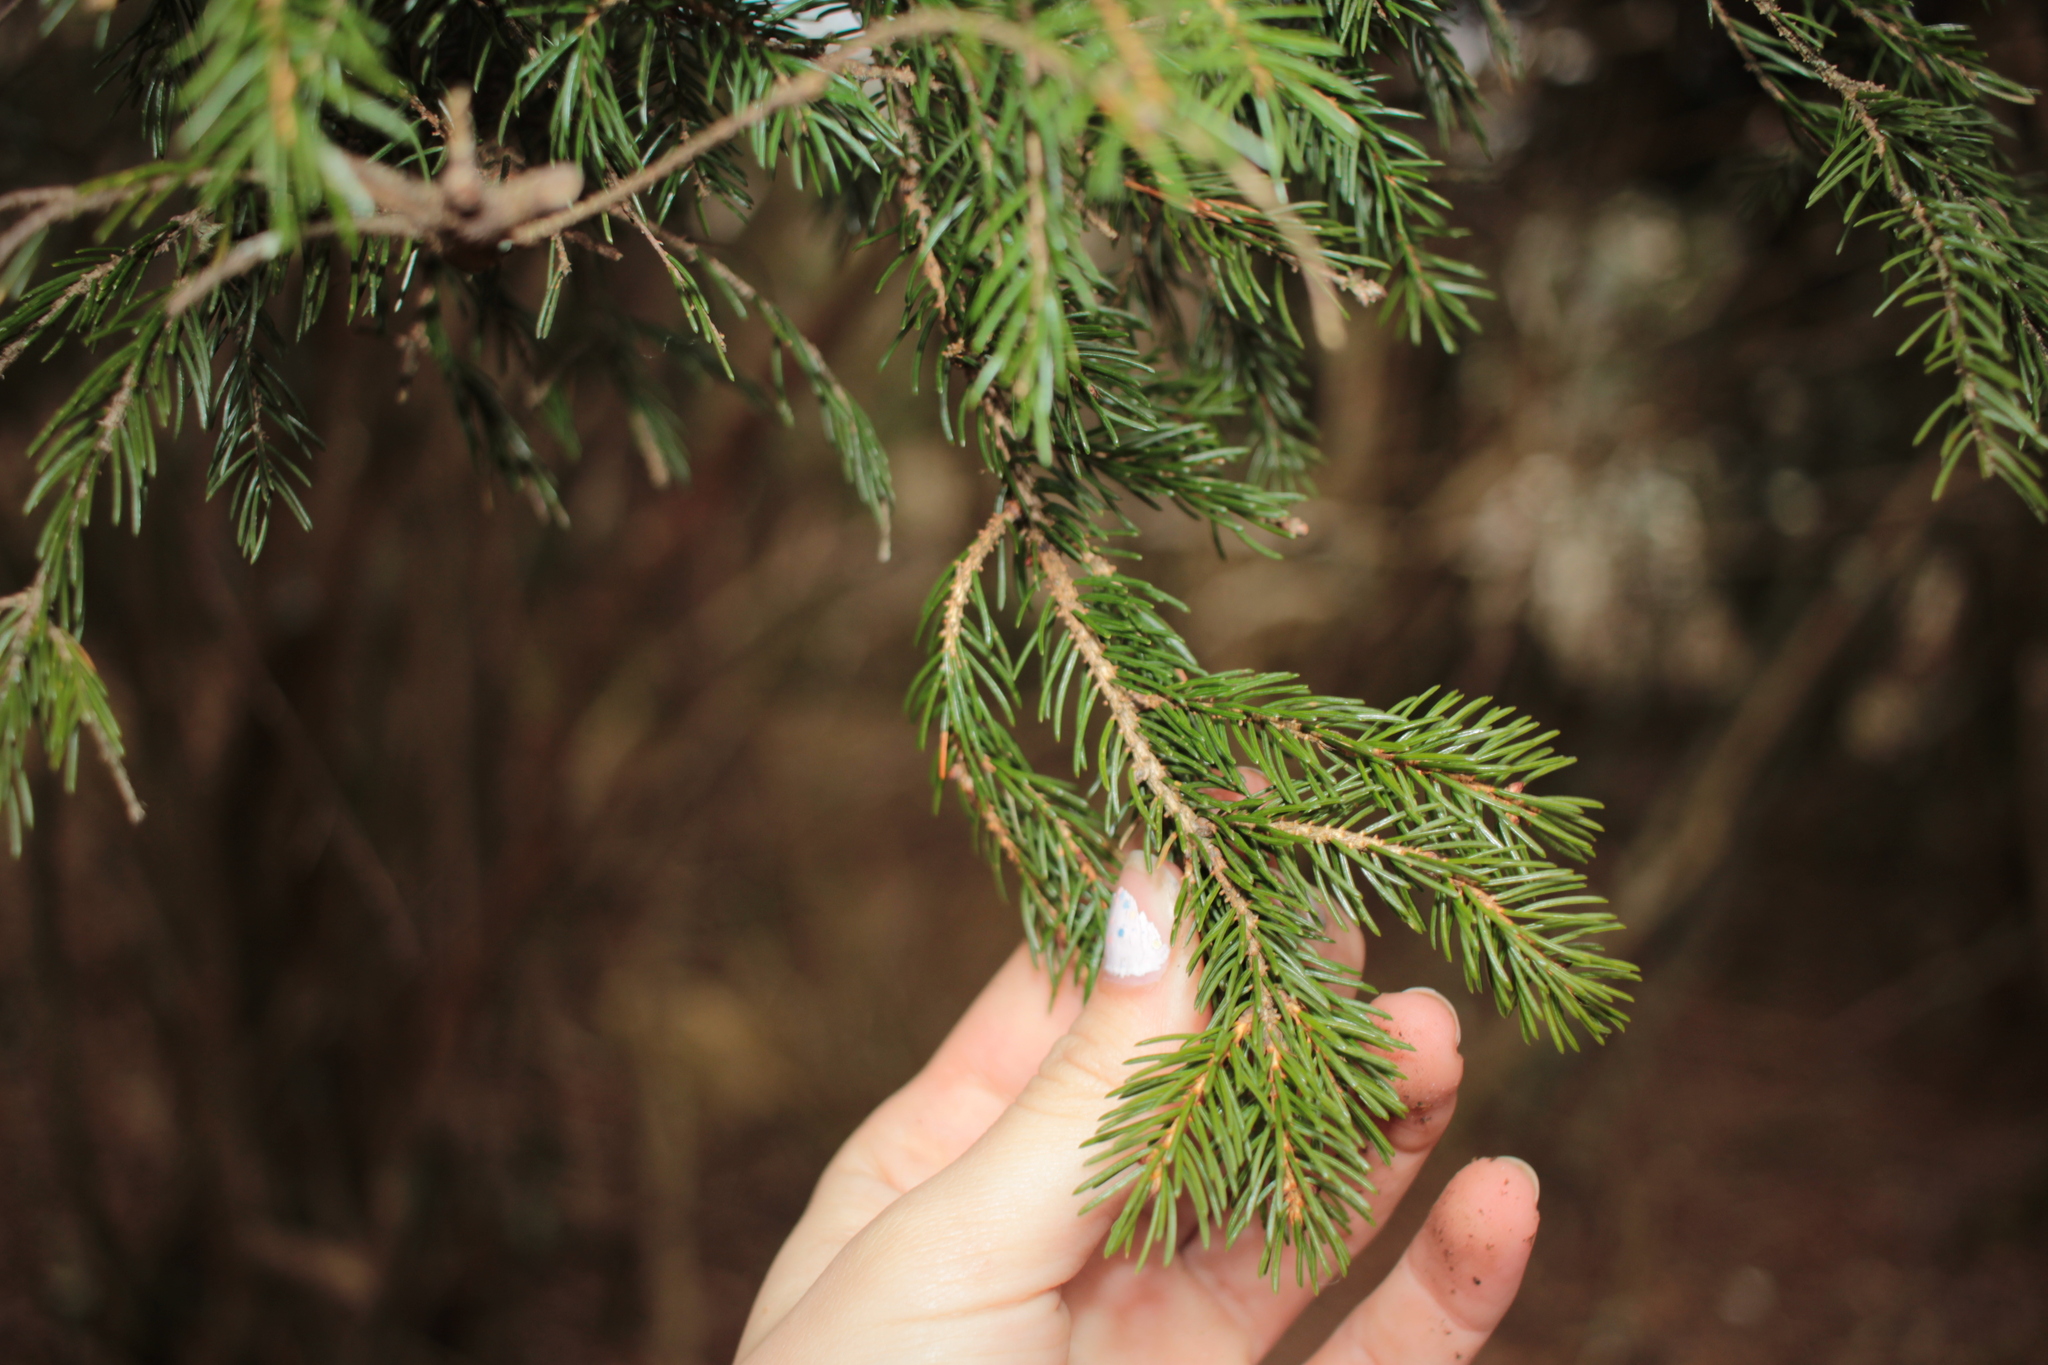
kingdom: Plantae
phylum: Tracheophyta
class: Pinopsida
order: Pinales
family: Pinaceae
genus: Picea
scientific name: Picea rubens
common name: Red spruce
